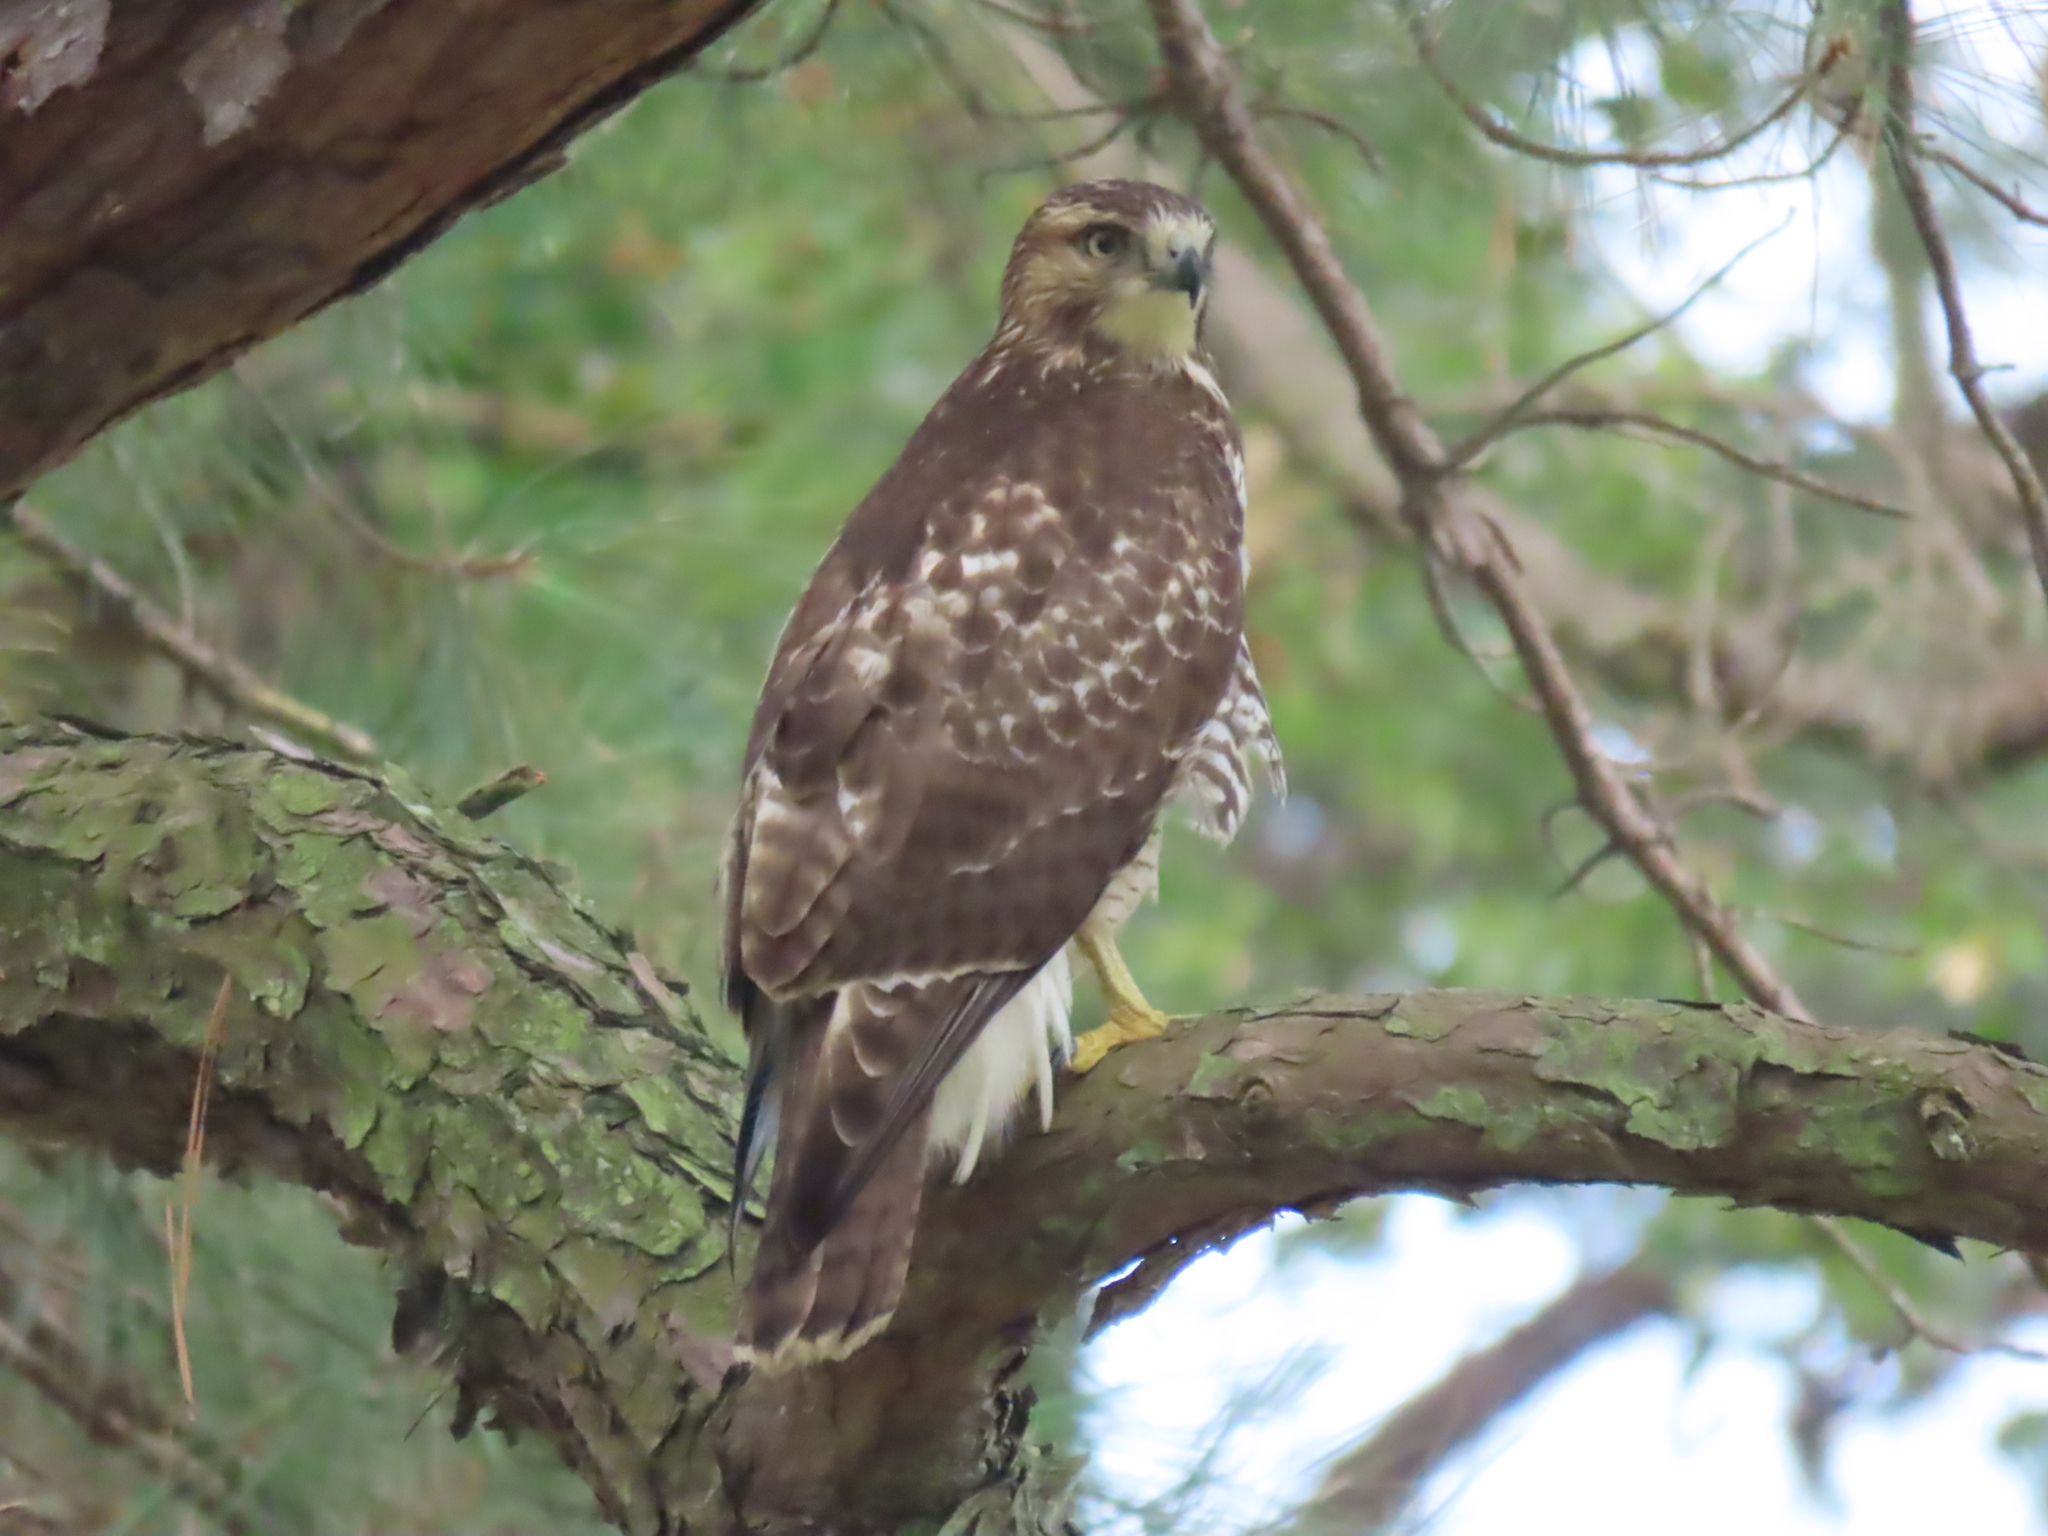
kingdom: Animalia
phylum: Chordata
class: Aves
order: Accipitriformes
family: Accipitridae
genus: Buteo
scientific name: Buteo jamaicensis
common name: Red-tailed hawk
